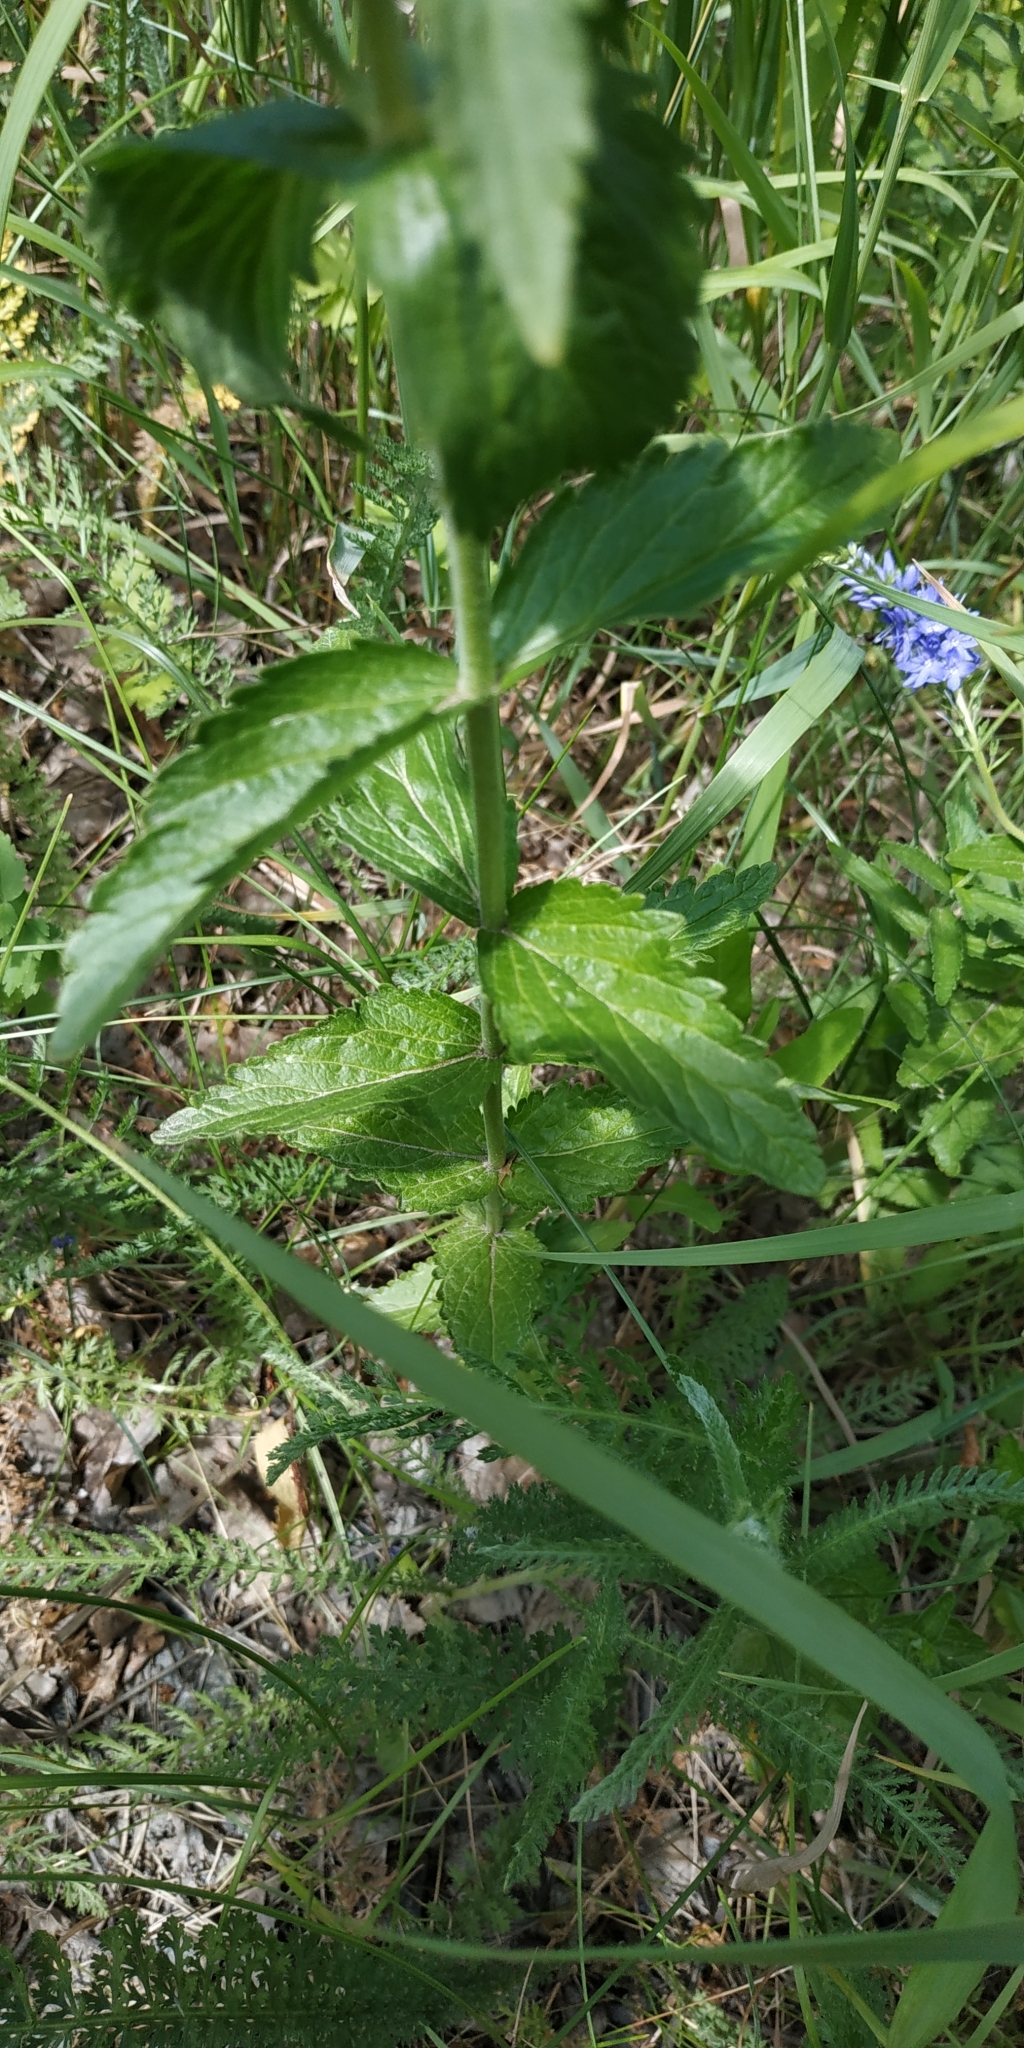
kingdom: Plantae
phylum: Tracheophyta
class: Magnoliopsida
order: Lamiales
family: Plantaginaceae
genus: Veronica
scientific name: Veronica teucrium
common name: Large speedwell
